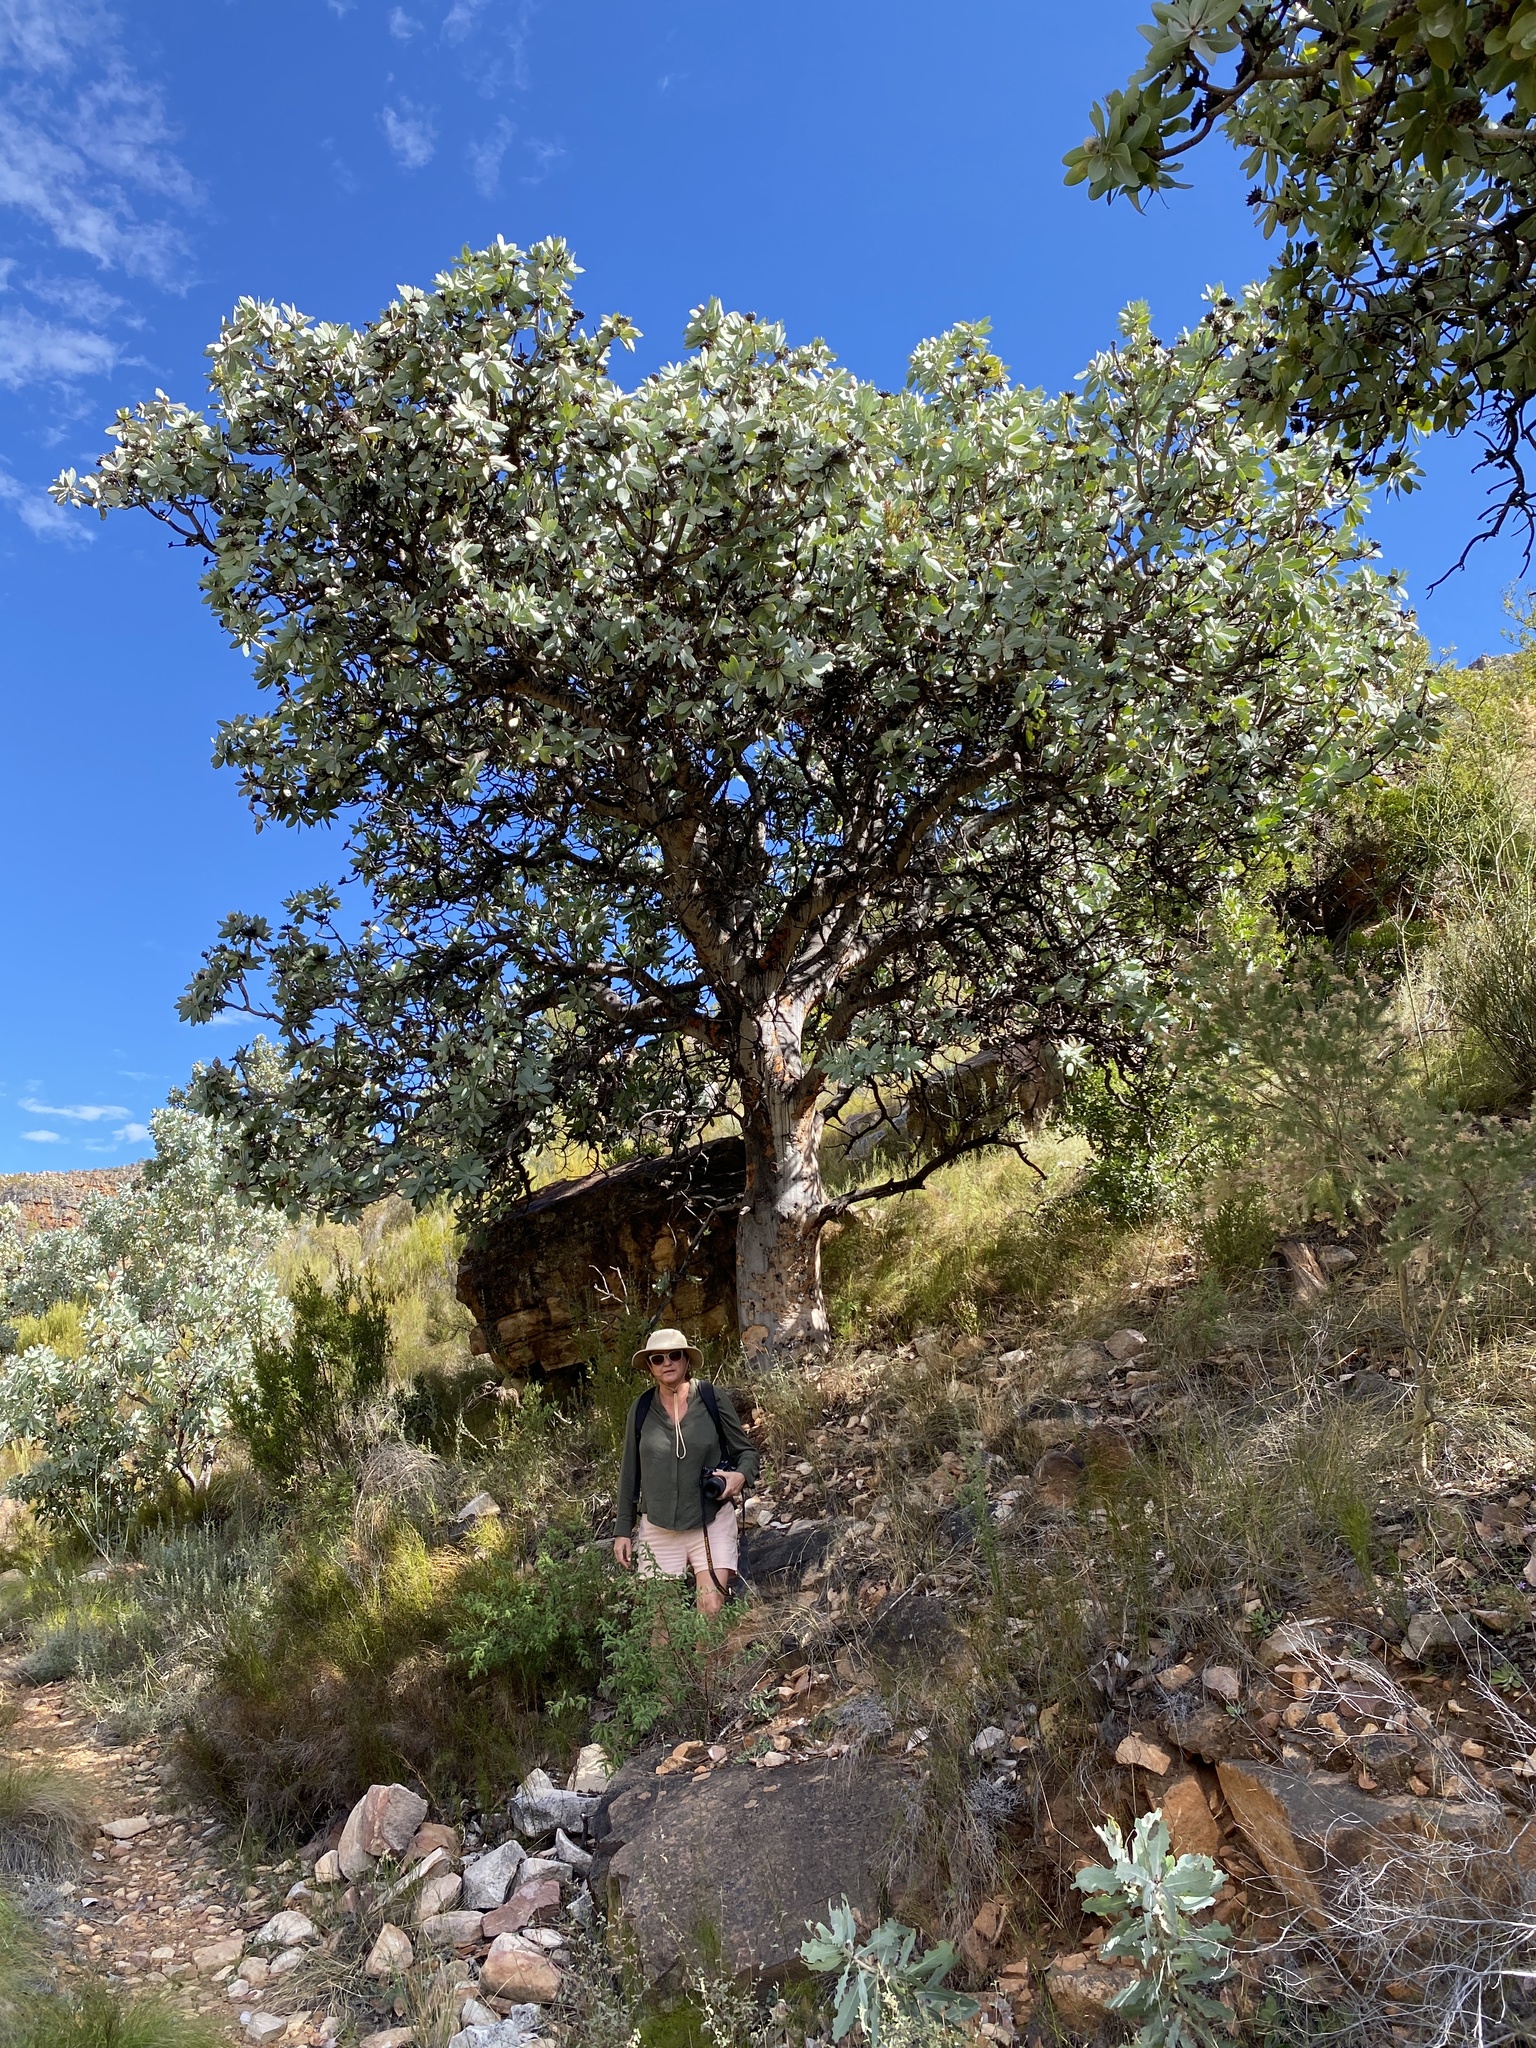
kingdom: Plantae
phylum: Tracheophyta
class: Magnoliopsida
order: Proteales
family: Proteaceae
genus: Protea
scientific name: Protea nitida
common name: Tree protea
